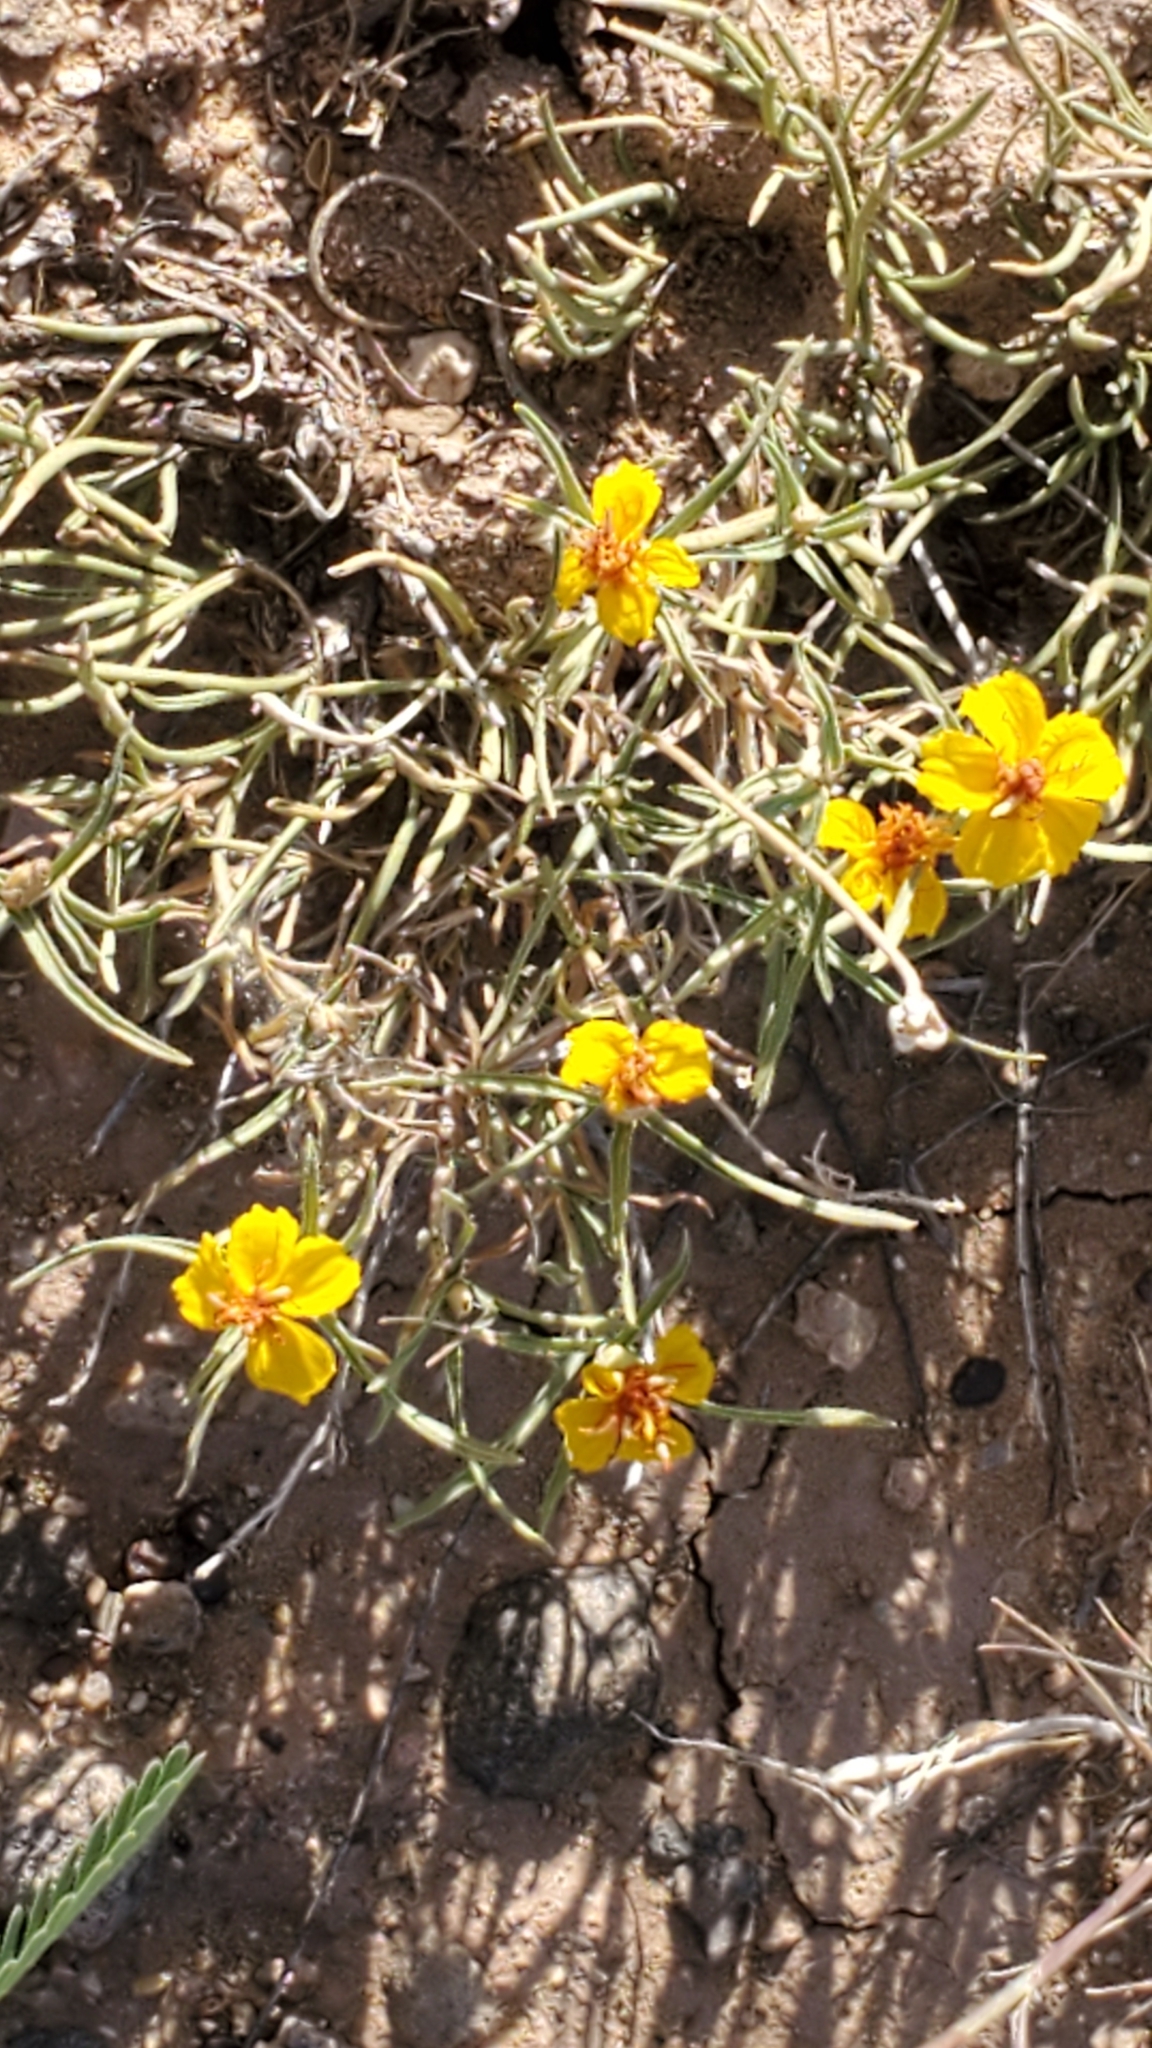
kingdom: Plantae
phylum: Tracheophyta
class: Magnoliopsida
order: Asterales
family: Asteraceae
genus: Zinnia
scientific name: Zinnia grandiflora
